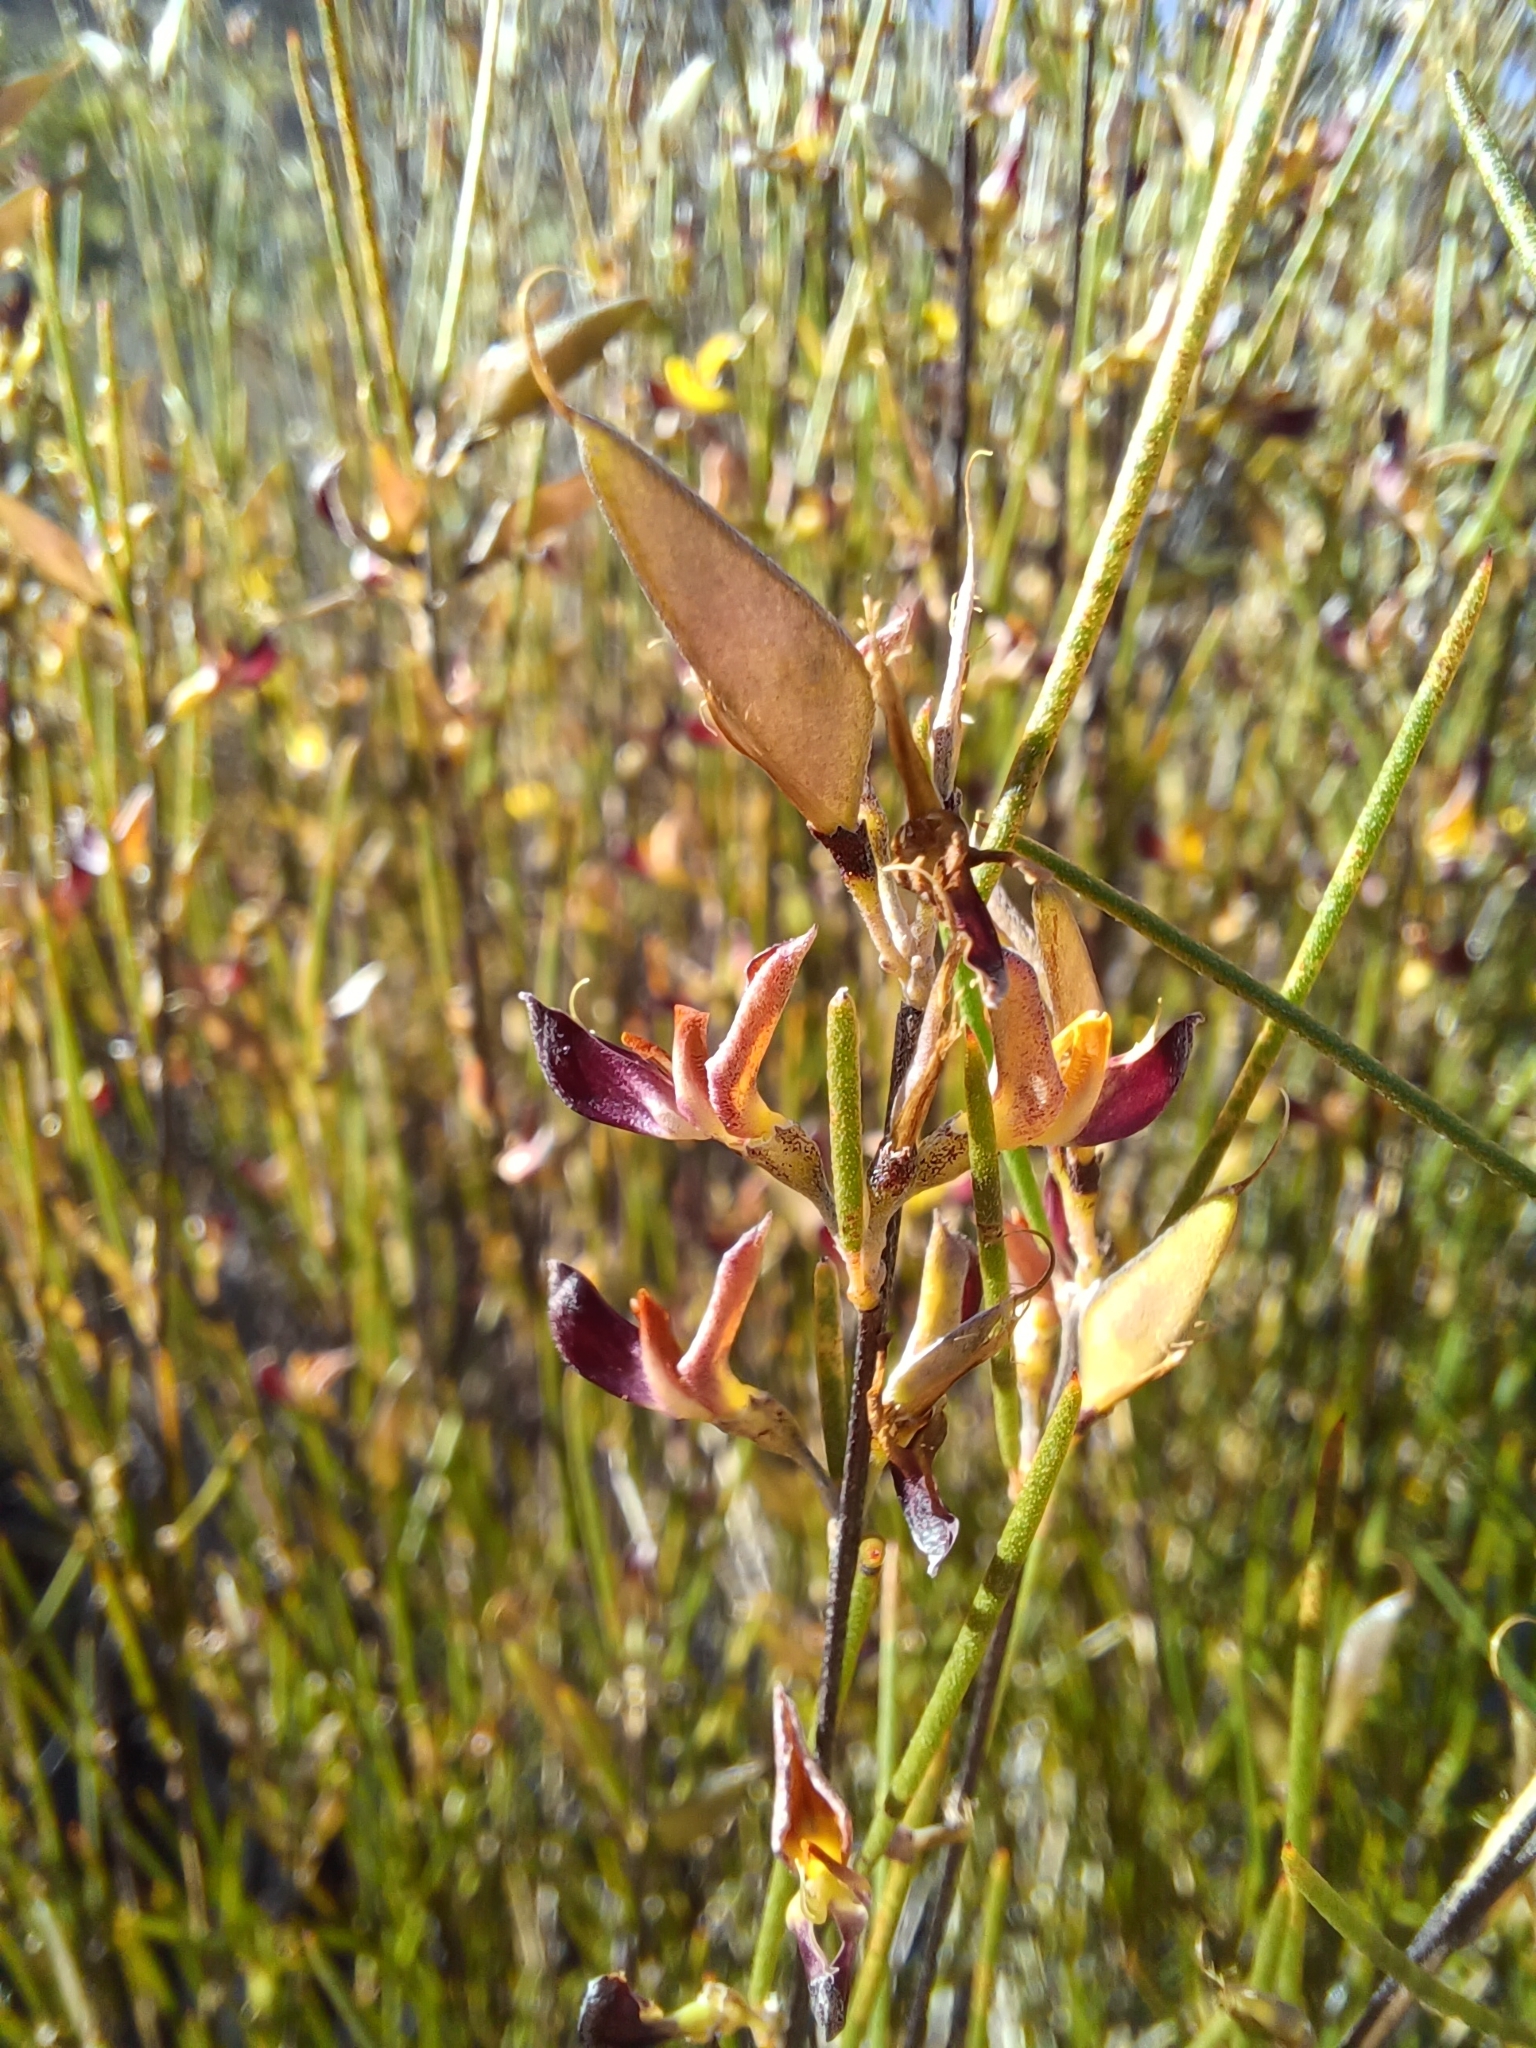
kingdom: Plantae
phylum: Tracheophyta
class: Magnoliopsida
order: Fabales
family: Fabaceae
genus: Aspalathus
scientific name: Aspalathus linearis
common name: Rooibos-tea
